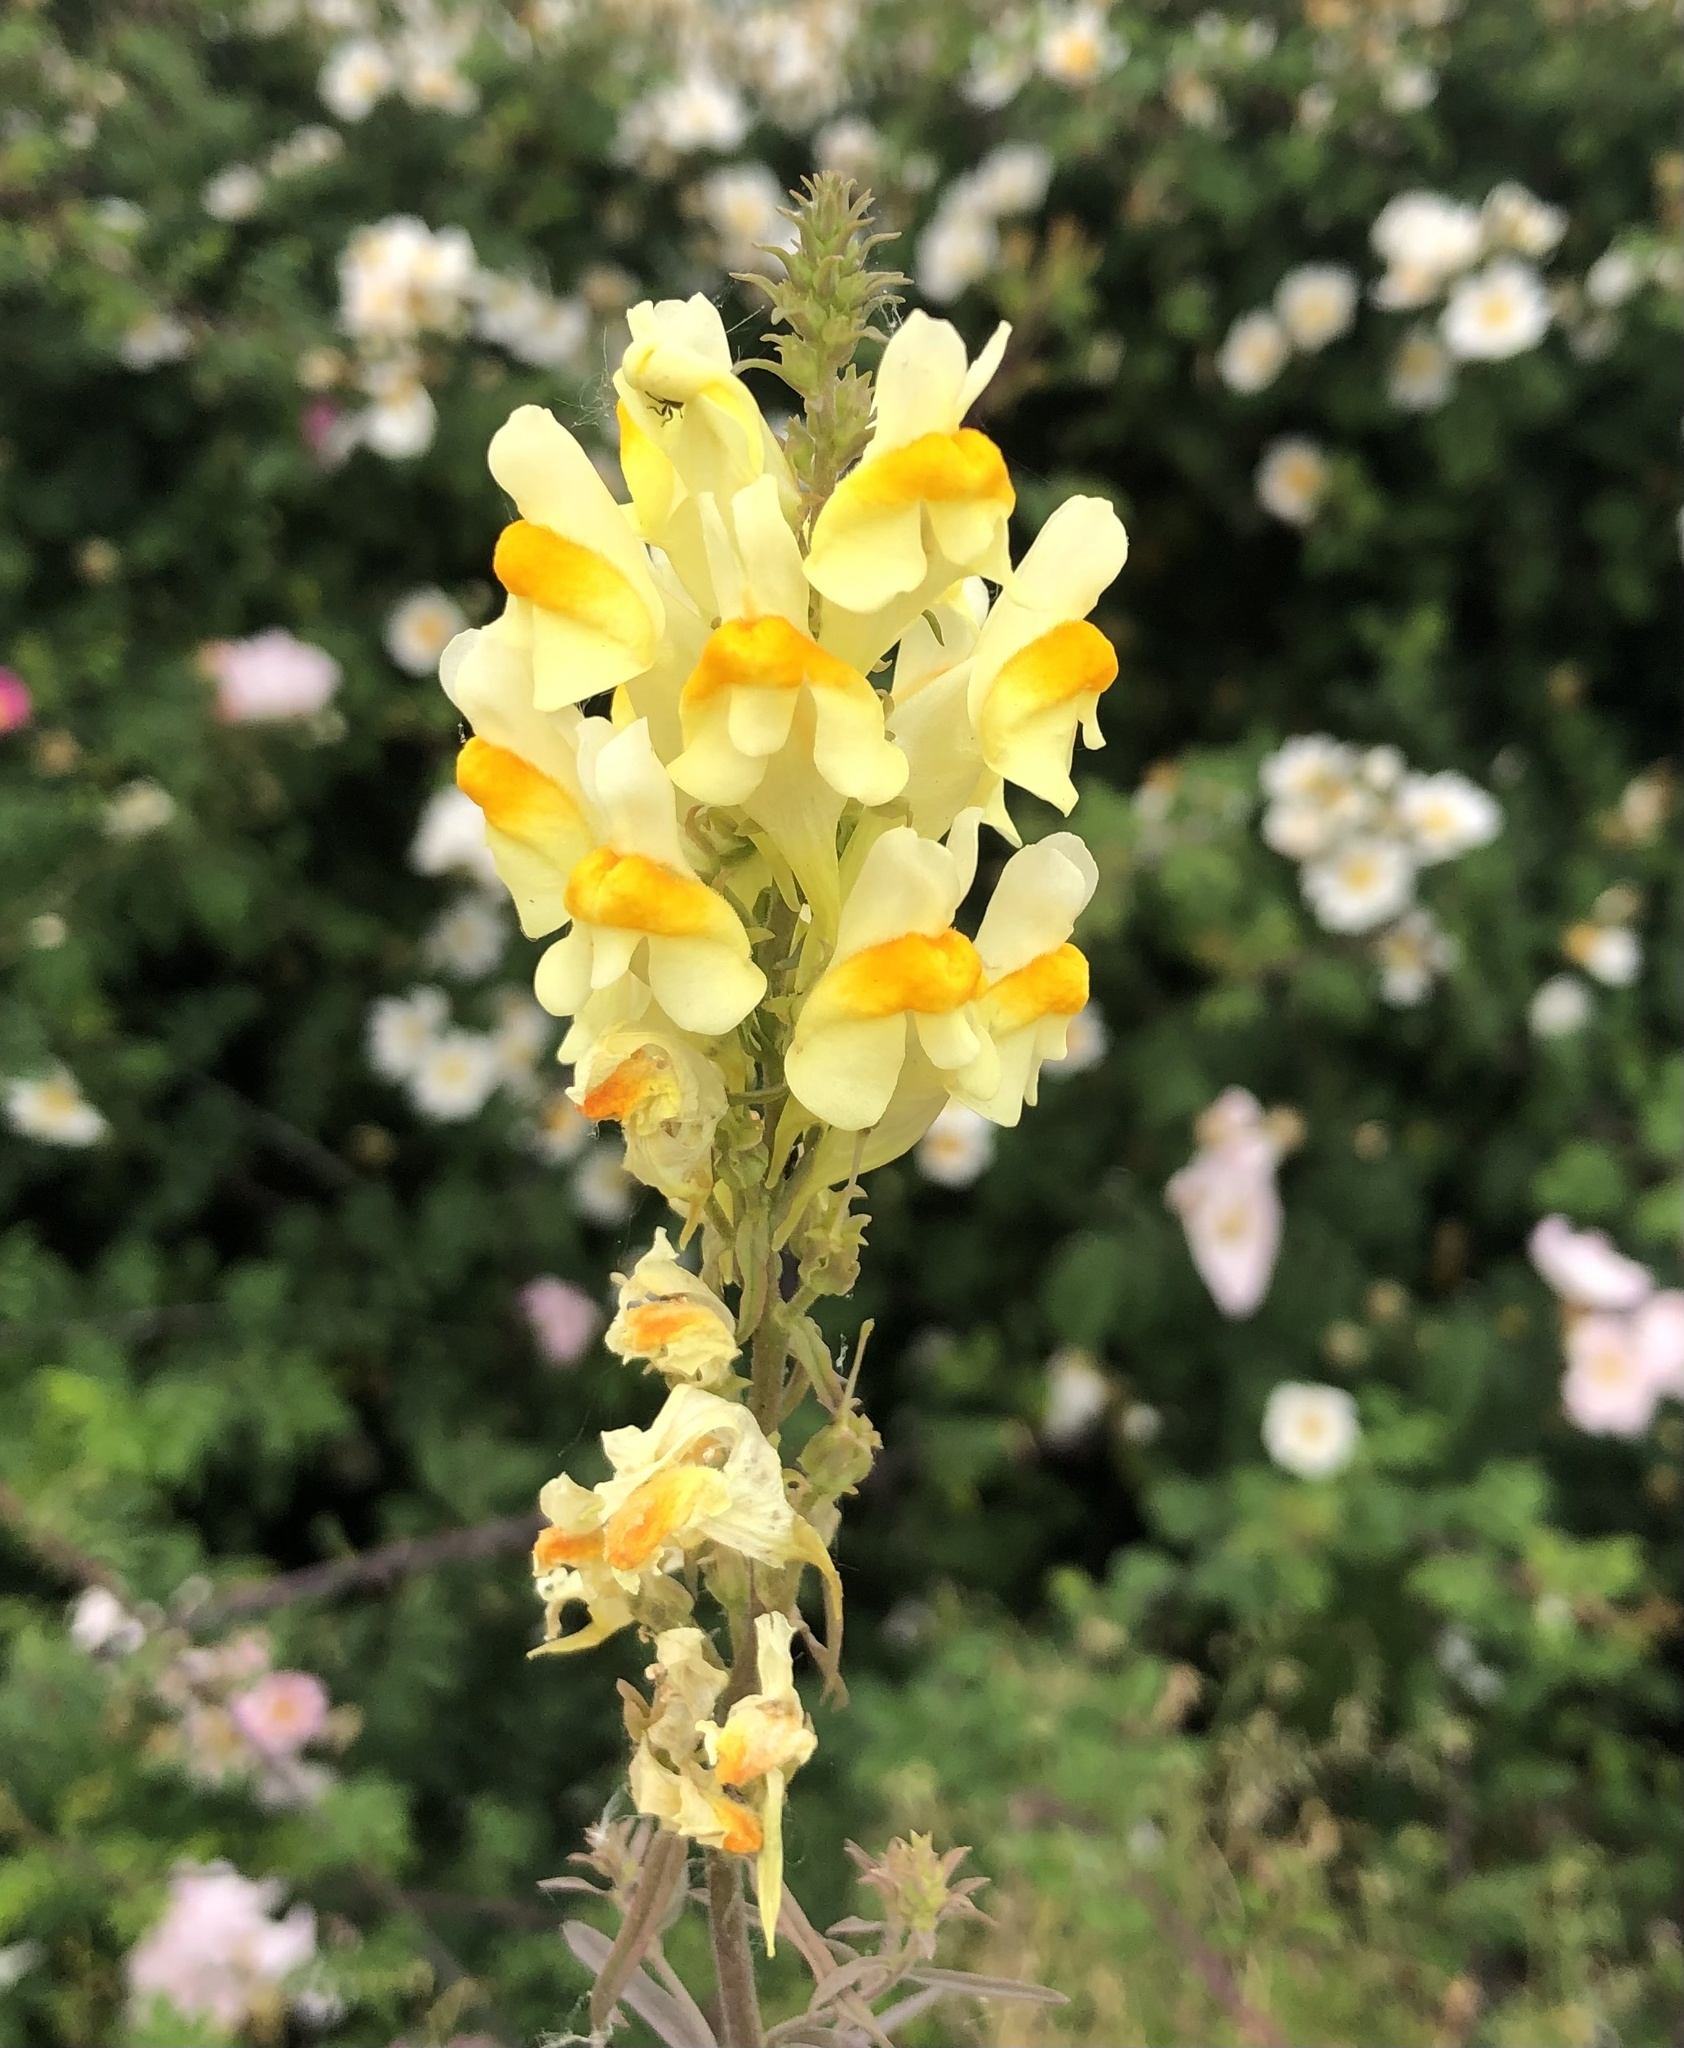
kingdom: Plantae
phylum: Tracheophyta
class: Magnoliopsida
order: Lamiales
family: Plantaginaceae
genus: Linaria
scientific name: Linaria vulgaris
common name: Butter and eggs
